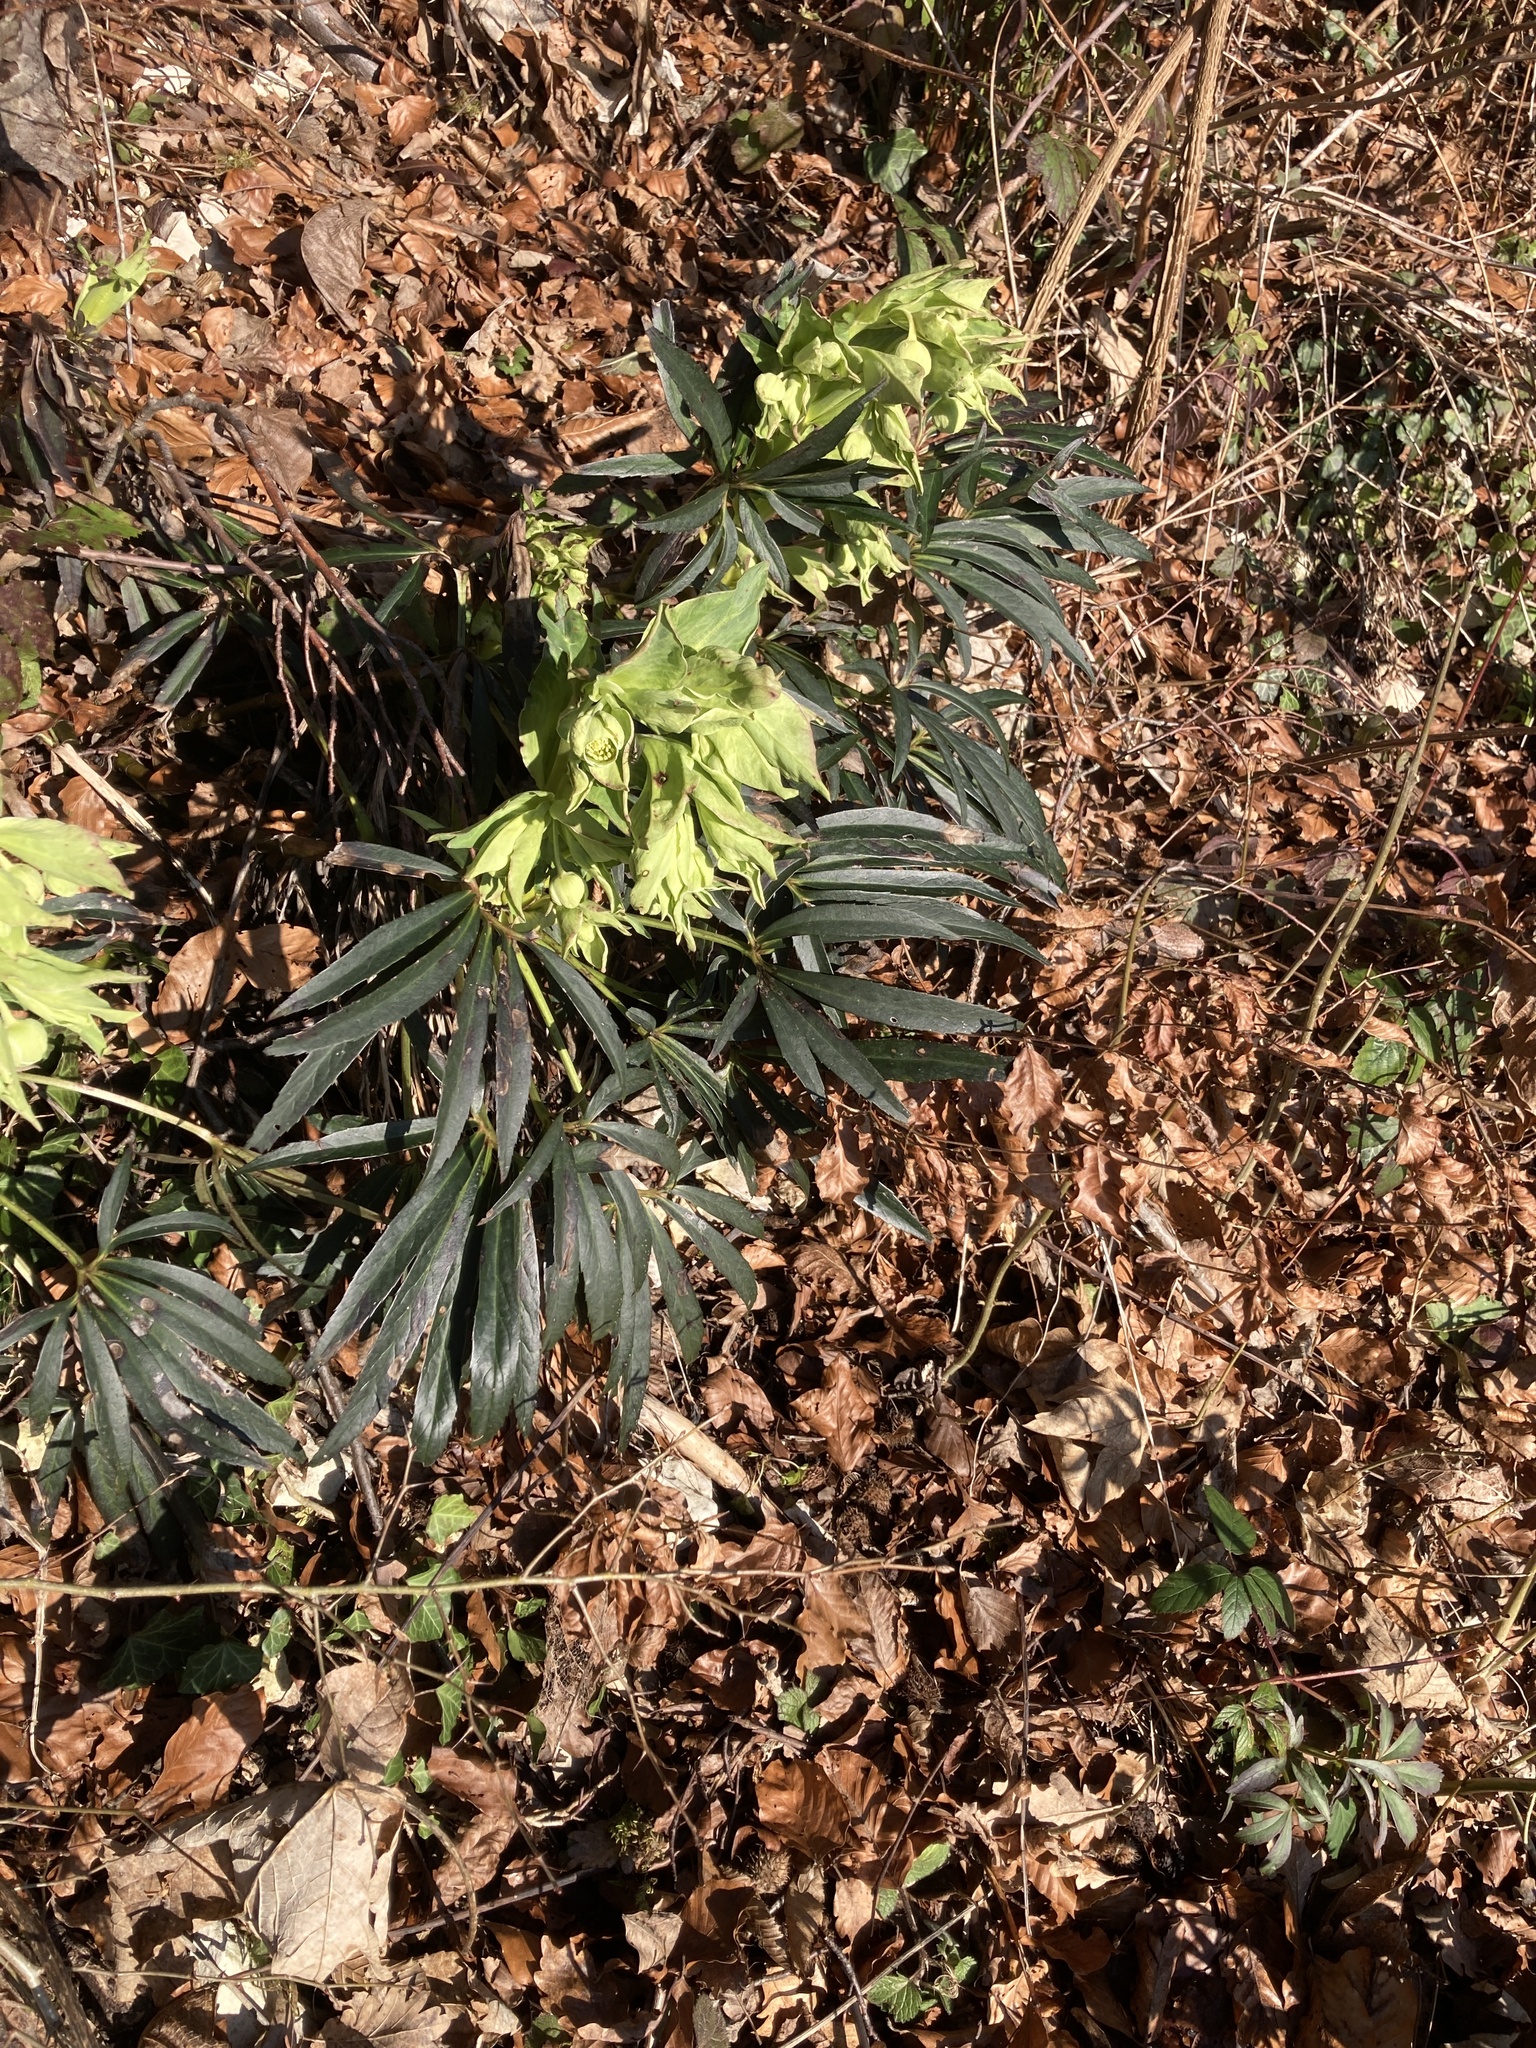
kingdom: Plantae
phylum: Tracheophyta
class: Magnoliopsida
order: Ranunculales
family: Ranunculaceae
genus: Helleborus
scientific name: Helleborus foetidus
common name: Stinking hellebore
